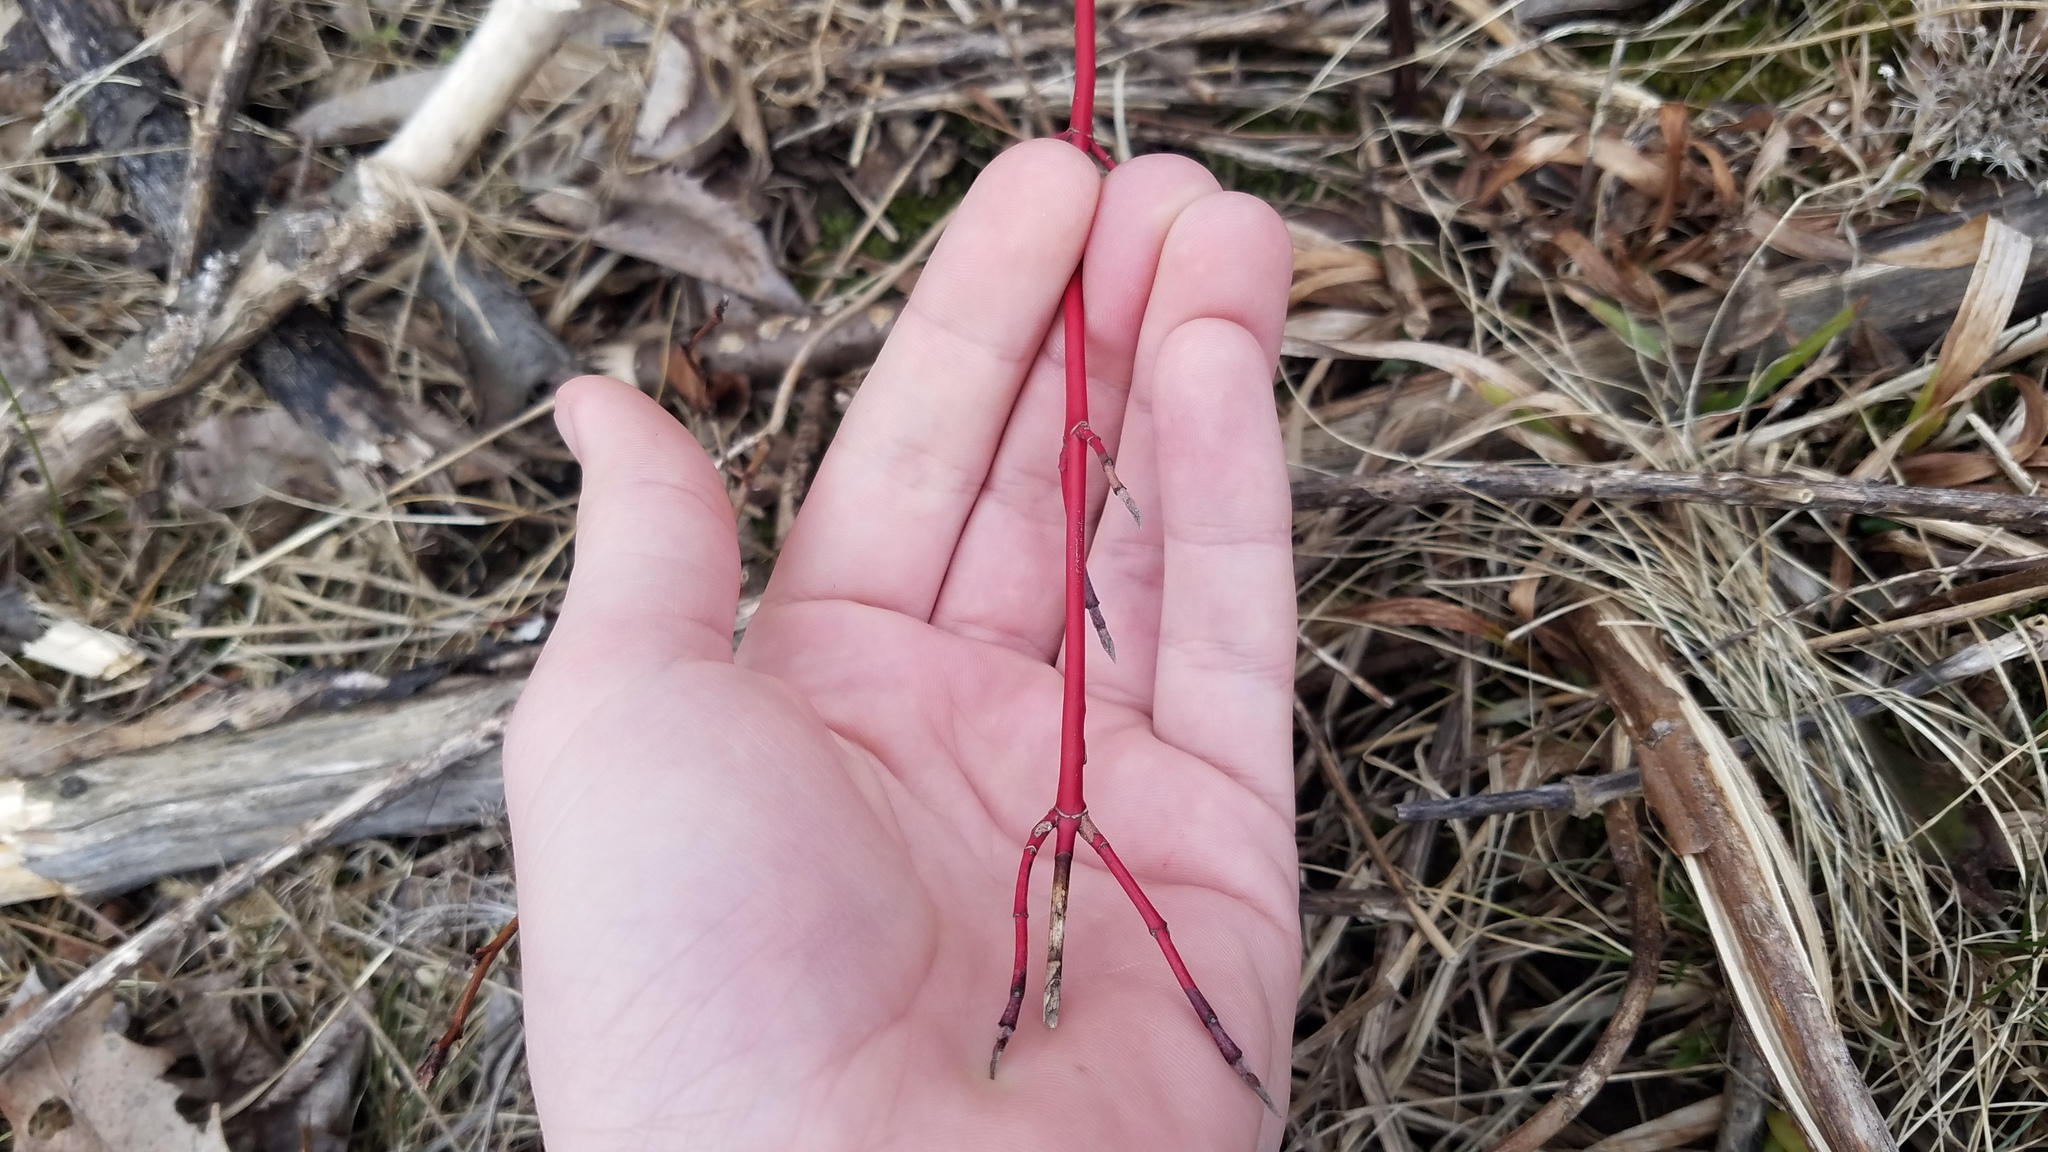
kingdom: Plantae
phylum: Tracheophyta
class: Magnoliopsida
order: Cornales
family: Cornaceae
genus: Cornus
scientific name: Cornus sericea
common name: Red-osier dogwood
